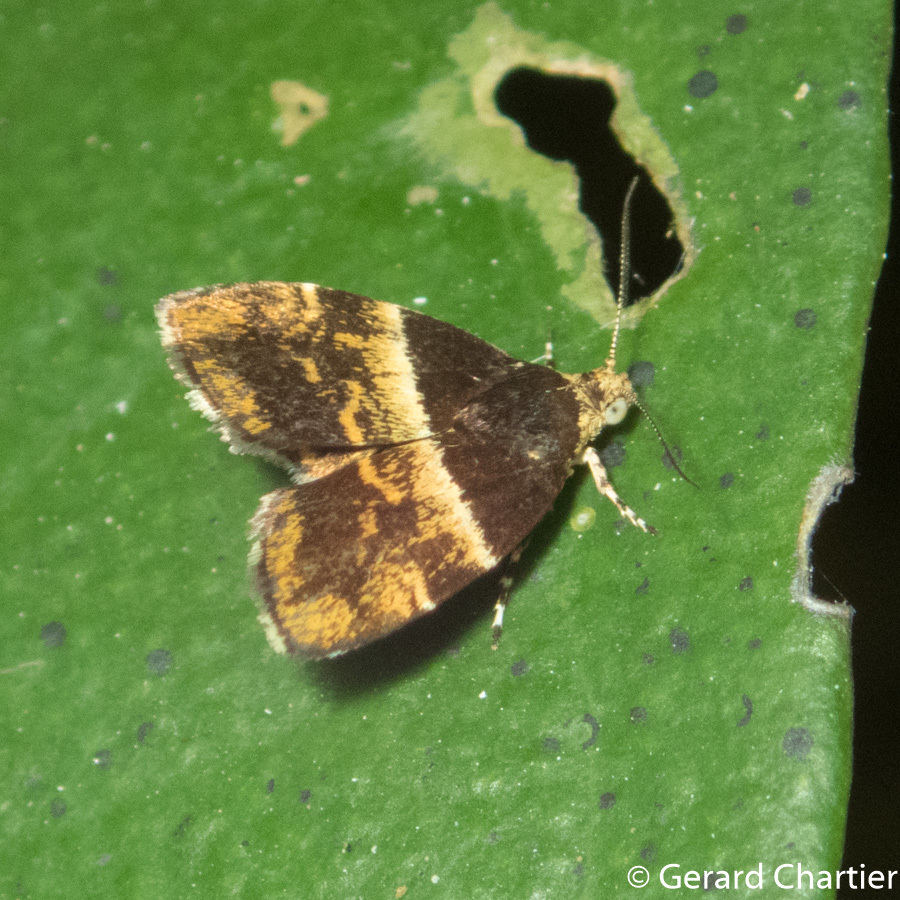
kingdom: Animalia
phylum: Arthropoda
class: Insecta
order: Lepidoptera
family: Choreutidae
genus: Choreutis
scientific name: Choreutis argyroxantha
